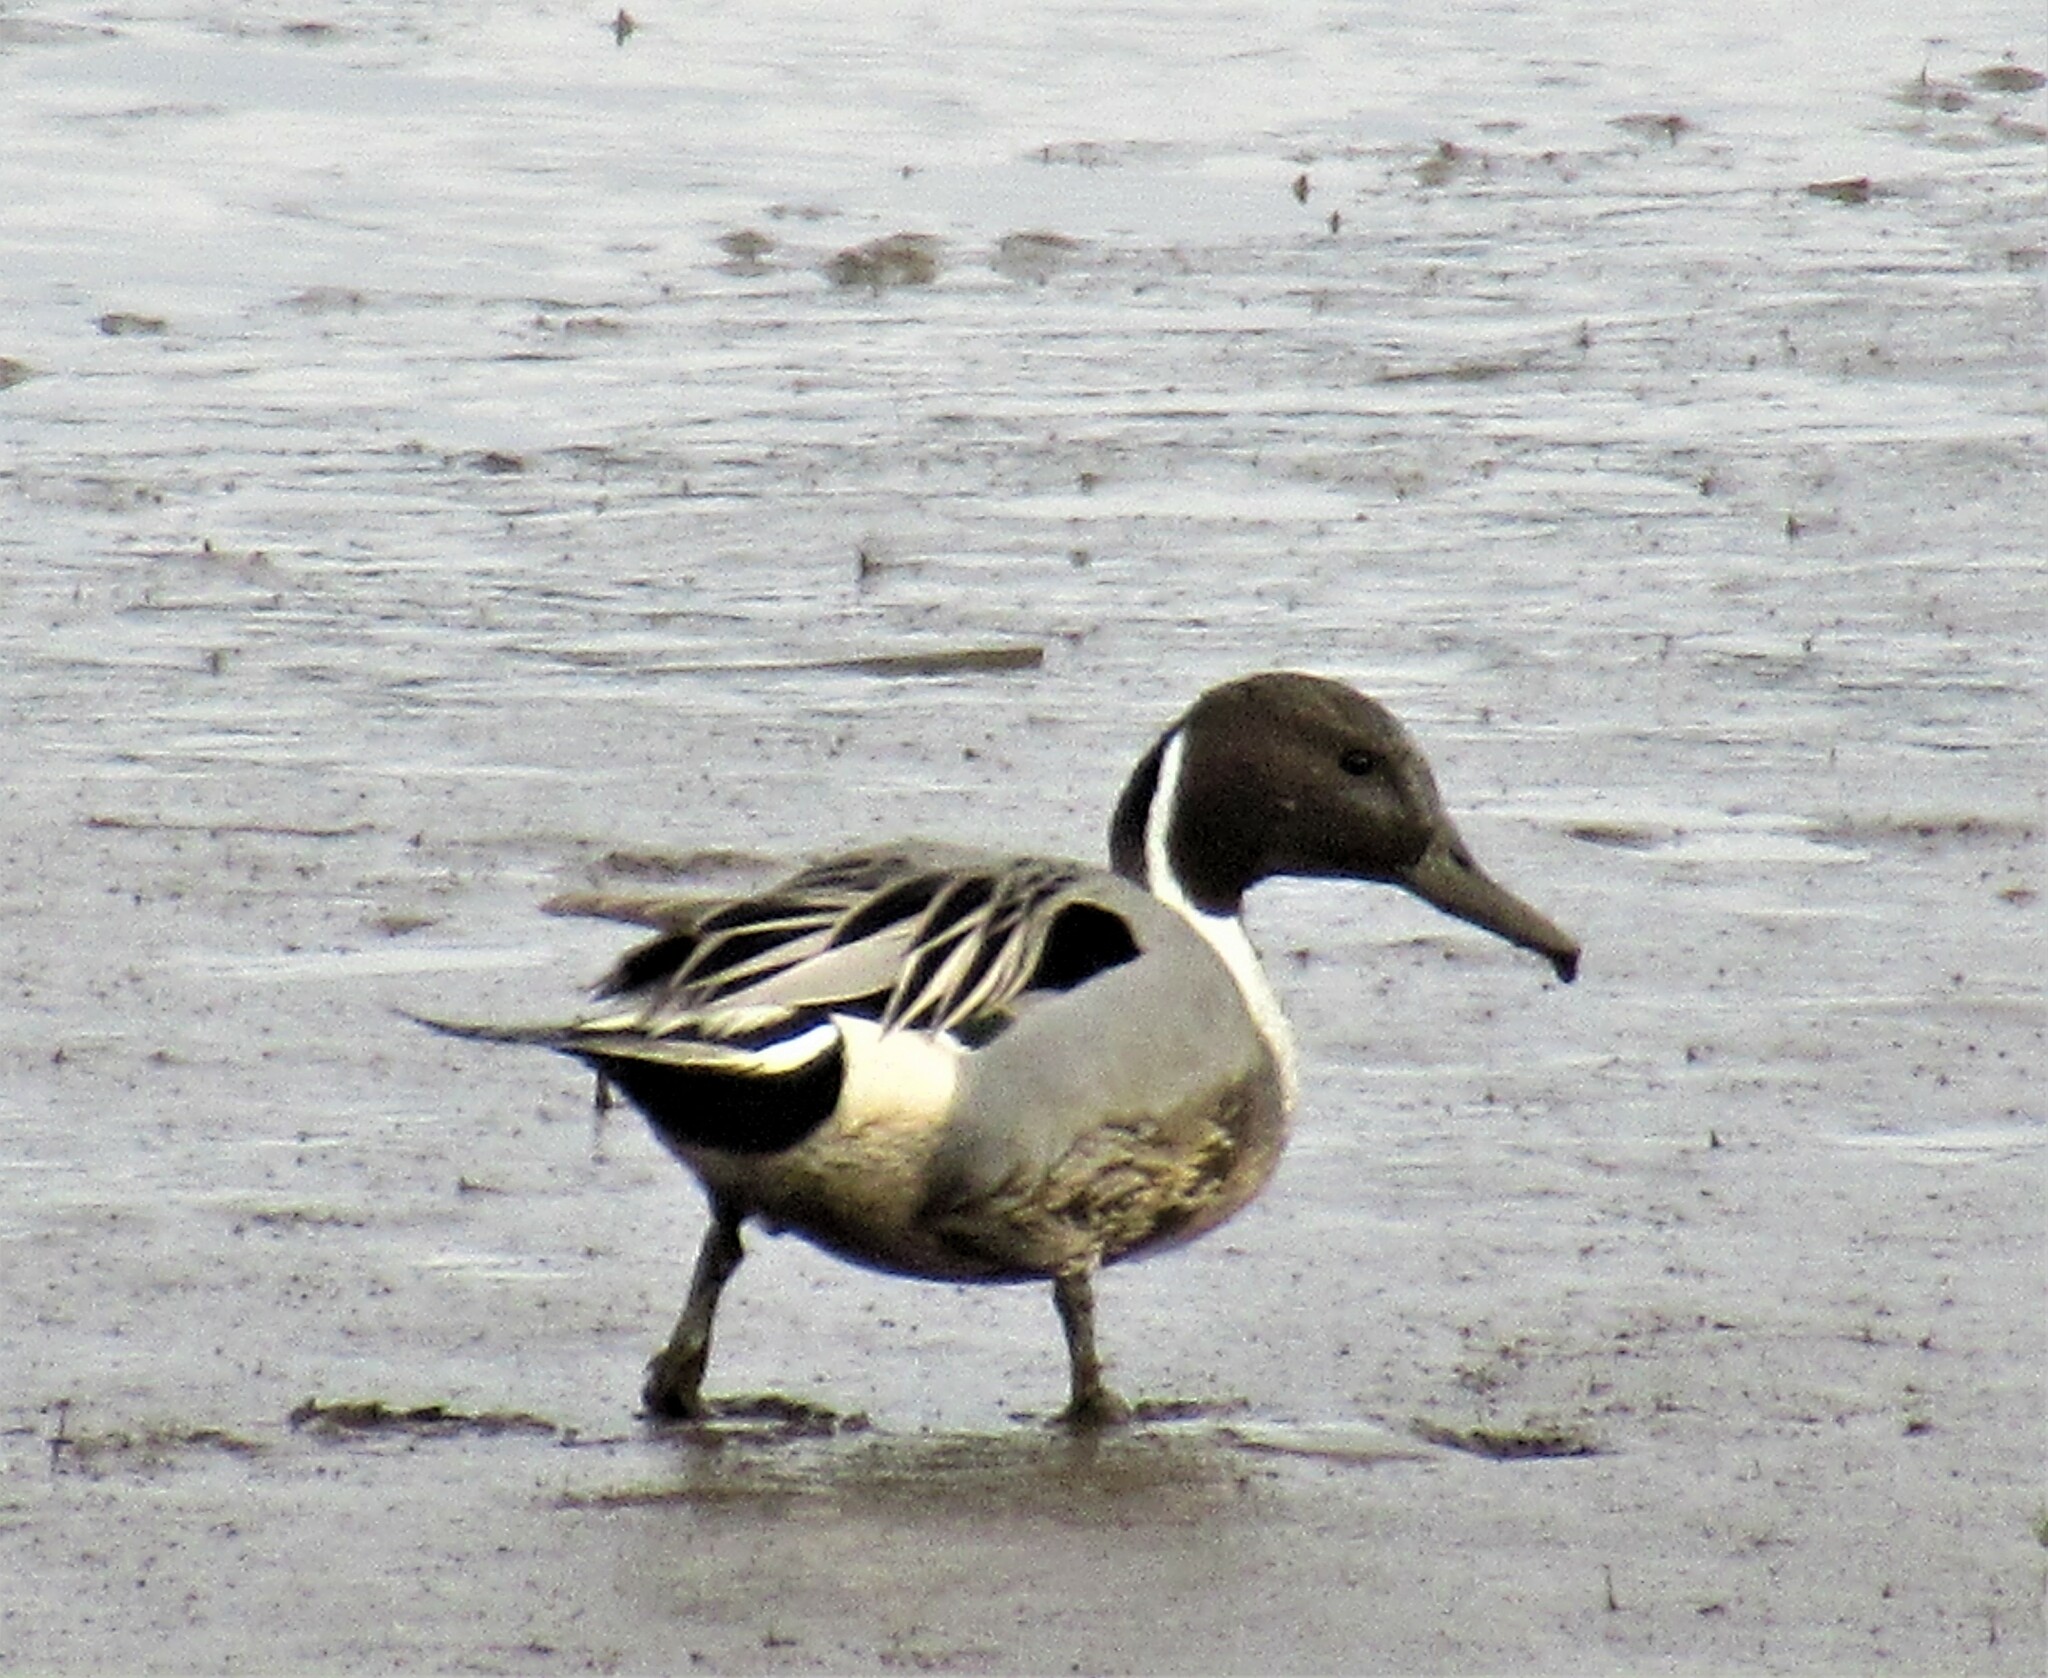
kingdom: Animalia
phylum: Chordata
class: Aves
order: Anseriformes
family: Anatidae
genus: Anas
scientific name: Anas acuta
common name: Northern pintail
